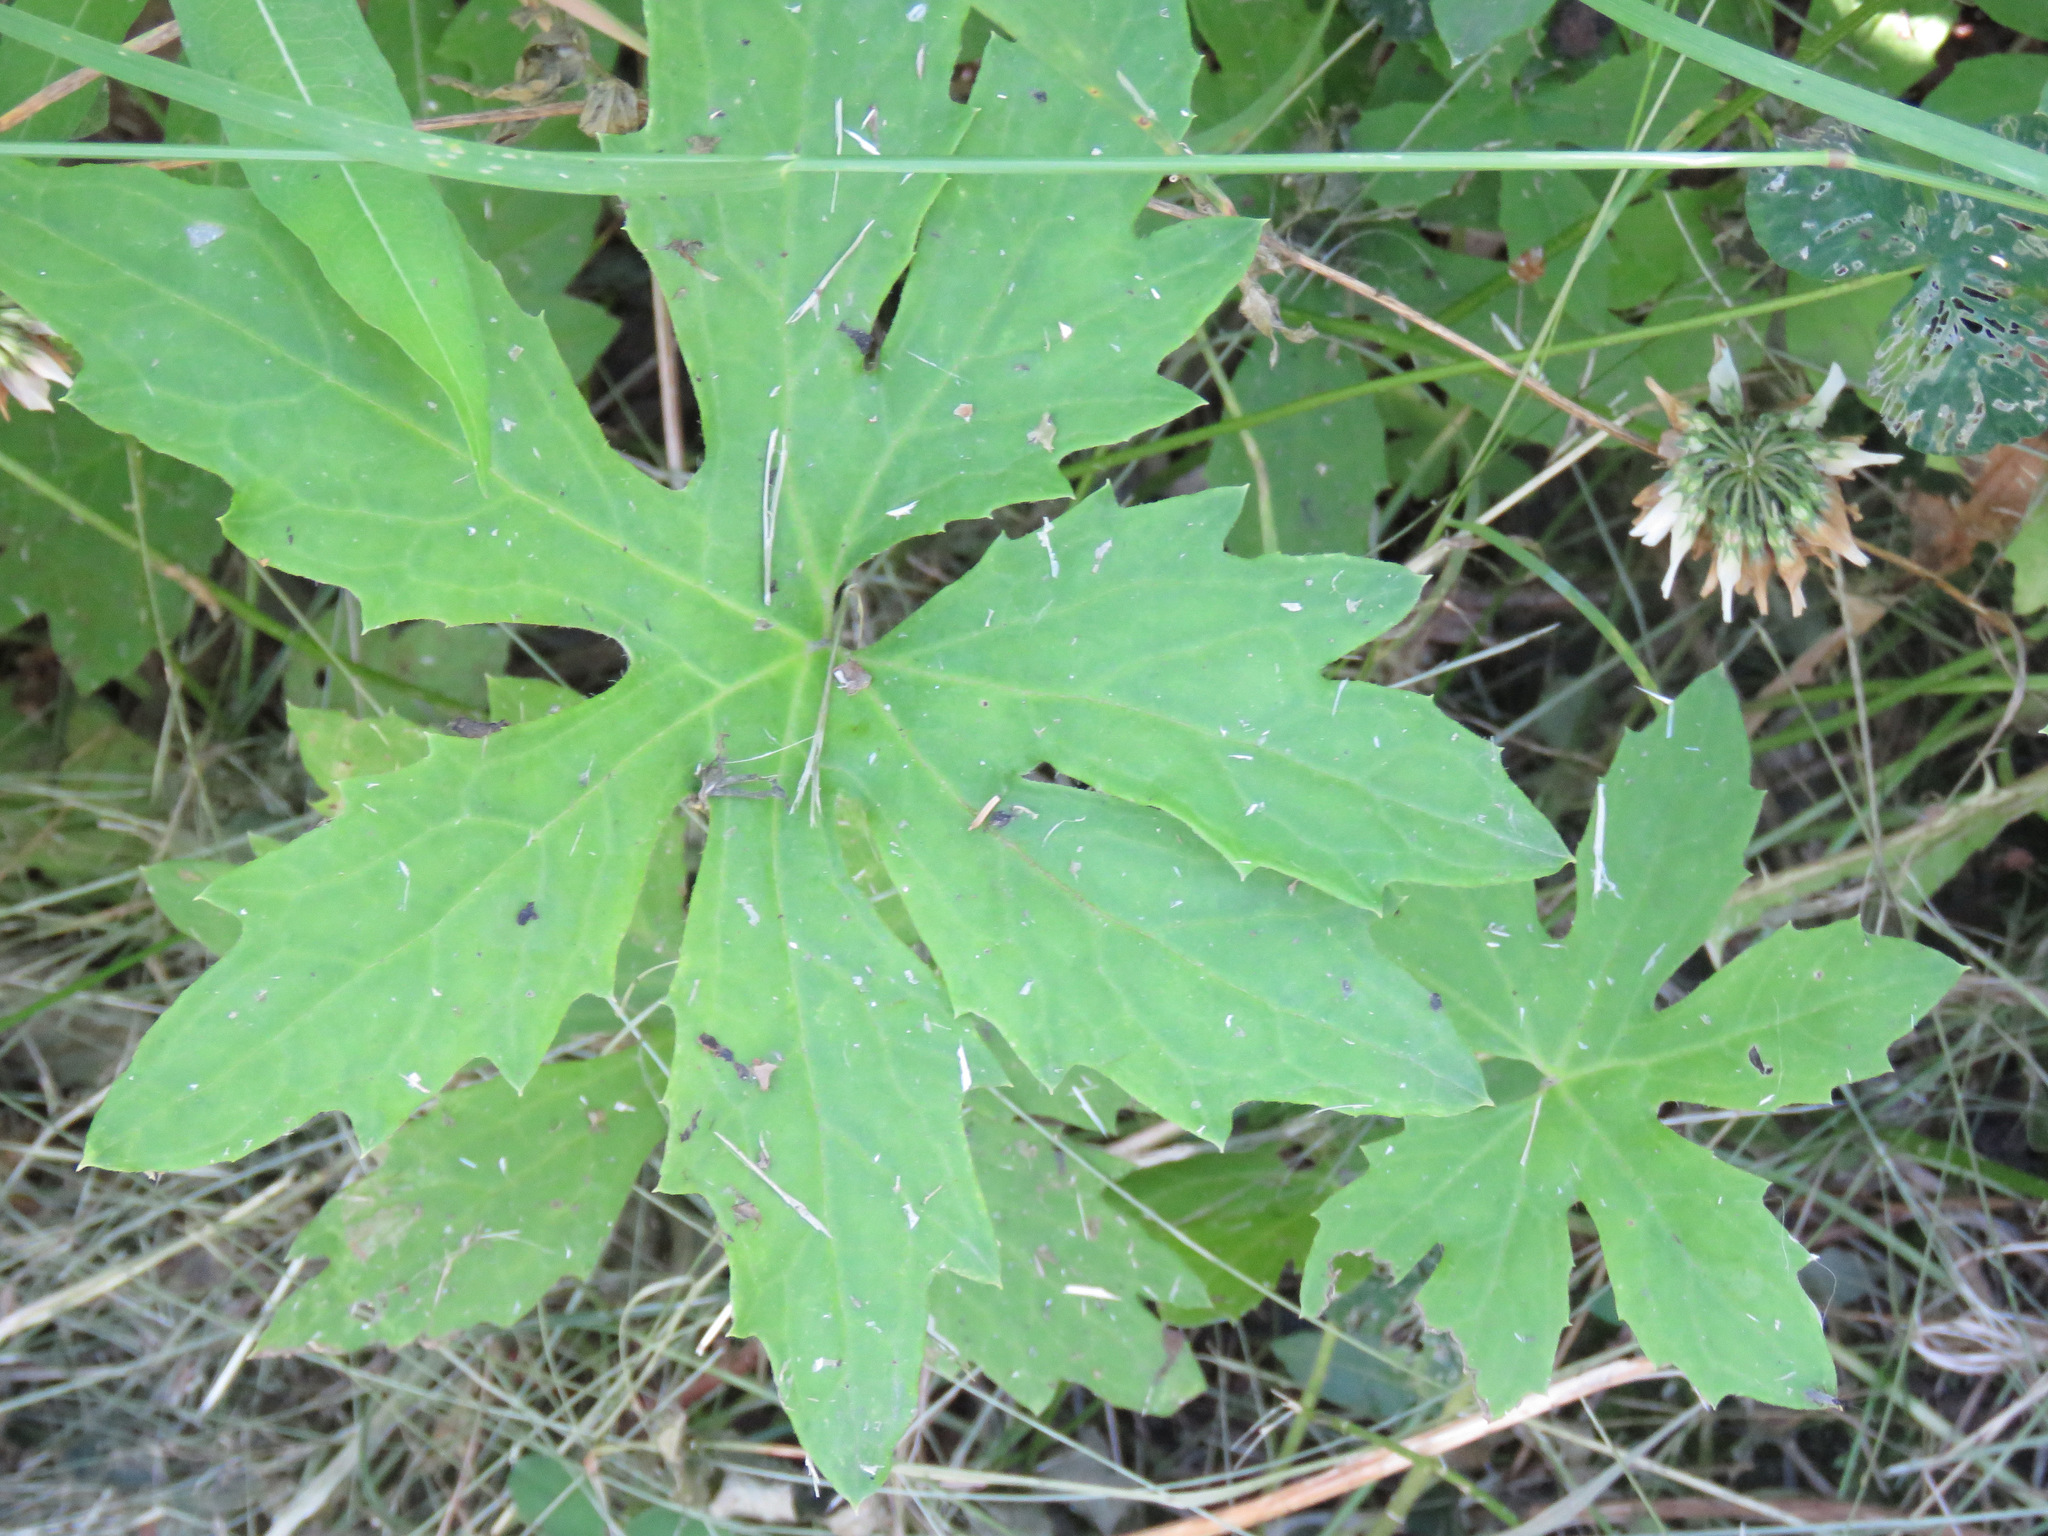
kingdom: Plantae
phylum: Tracheophyta
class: Magnoliopsida
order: Asterales
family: Asteraceae
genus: Petasites
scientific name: Petasites frigidus
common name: Arctic butterbur
